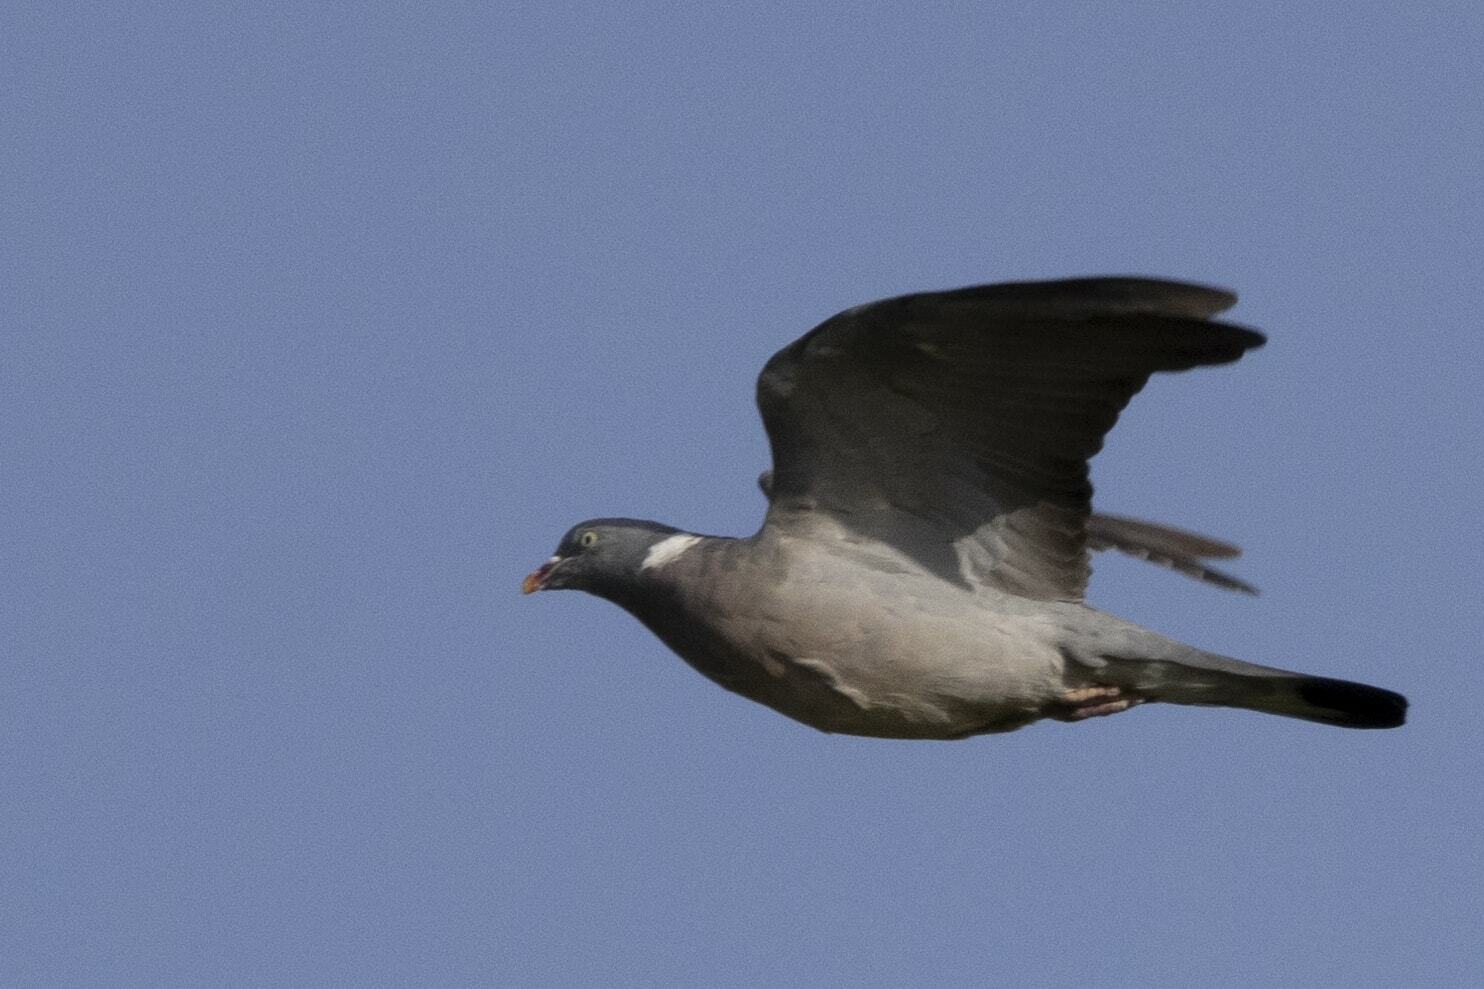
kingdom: Animalia
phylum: Chordata
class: Aves
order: Columbiformes
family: Columbidae
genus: Columba
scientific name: Columba palumbus
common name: Common wood pigeon
